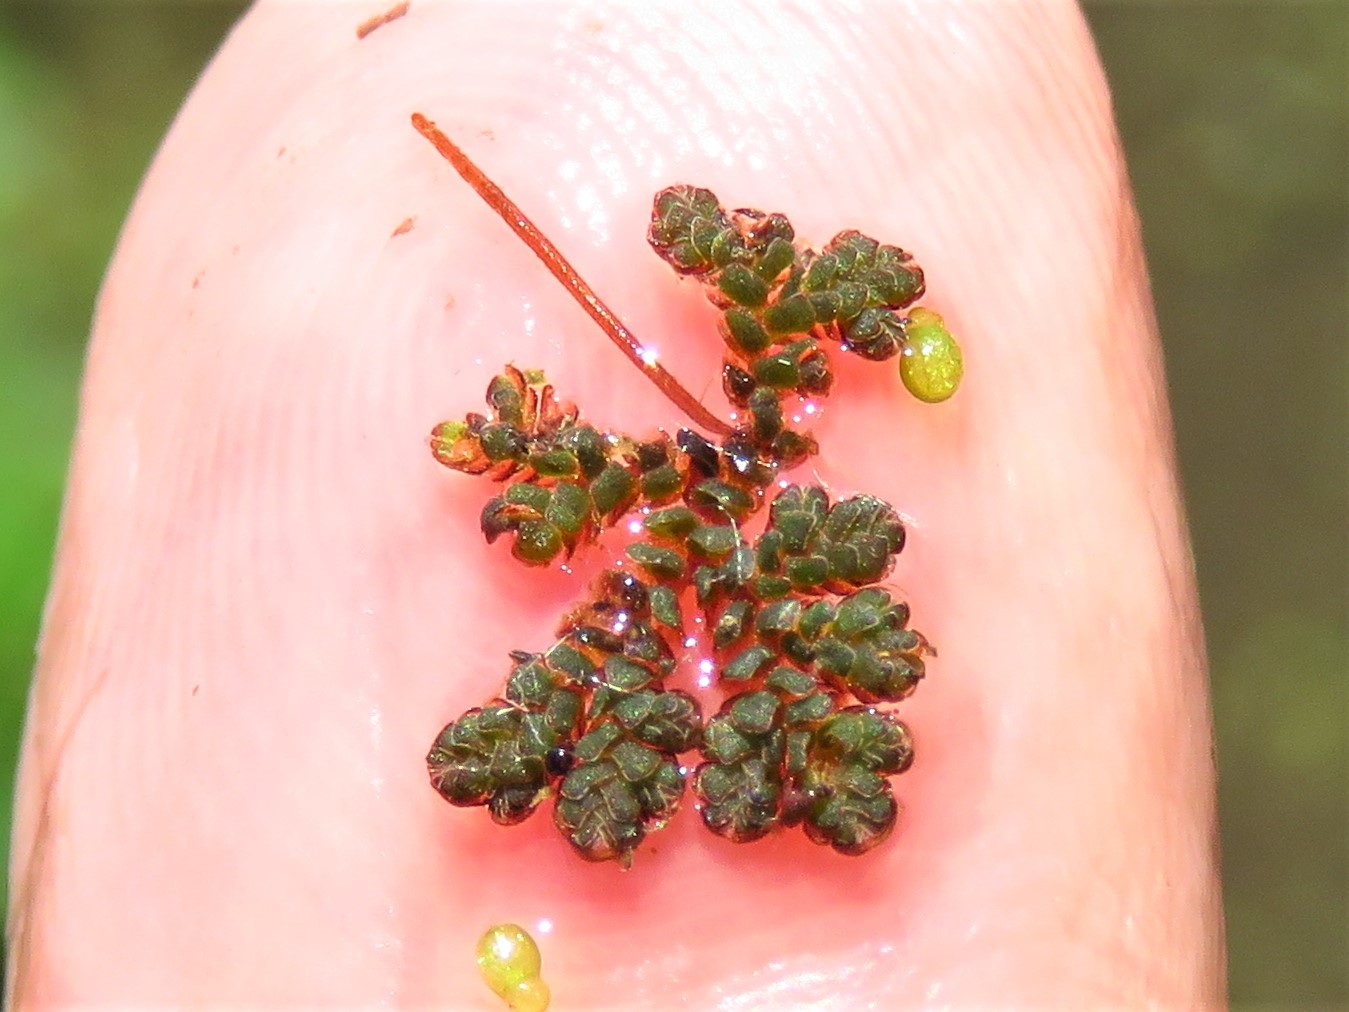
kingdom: Plantae
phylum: Tracheophyta
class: Polypodiopsida
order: Salviniales
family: Salviniaceae
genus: Azolla
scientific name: Azolla caroliniana
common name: Carolina mosquitofern
